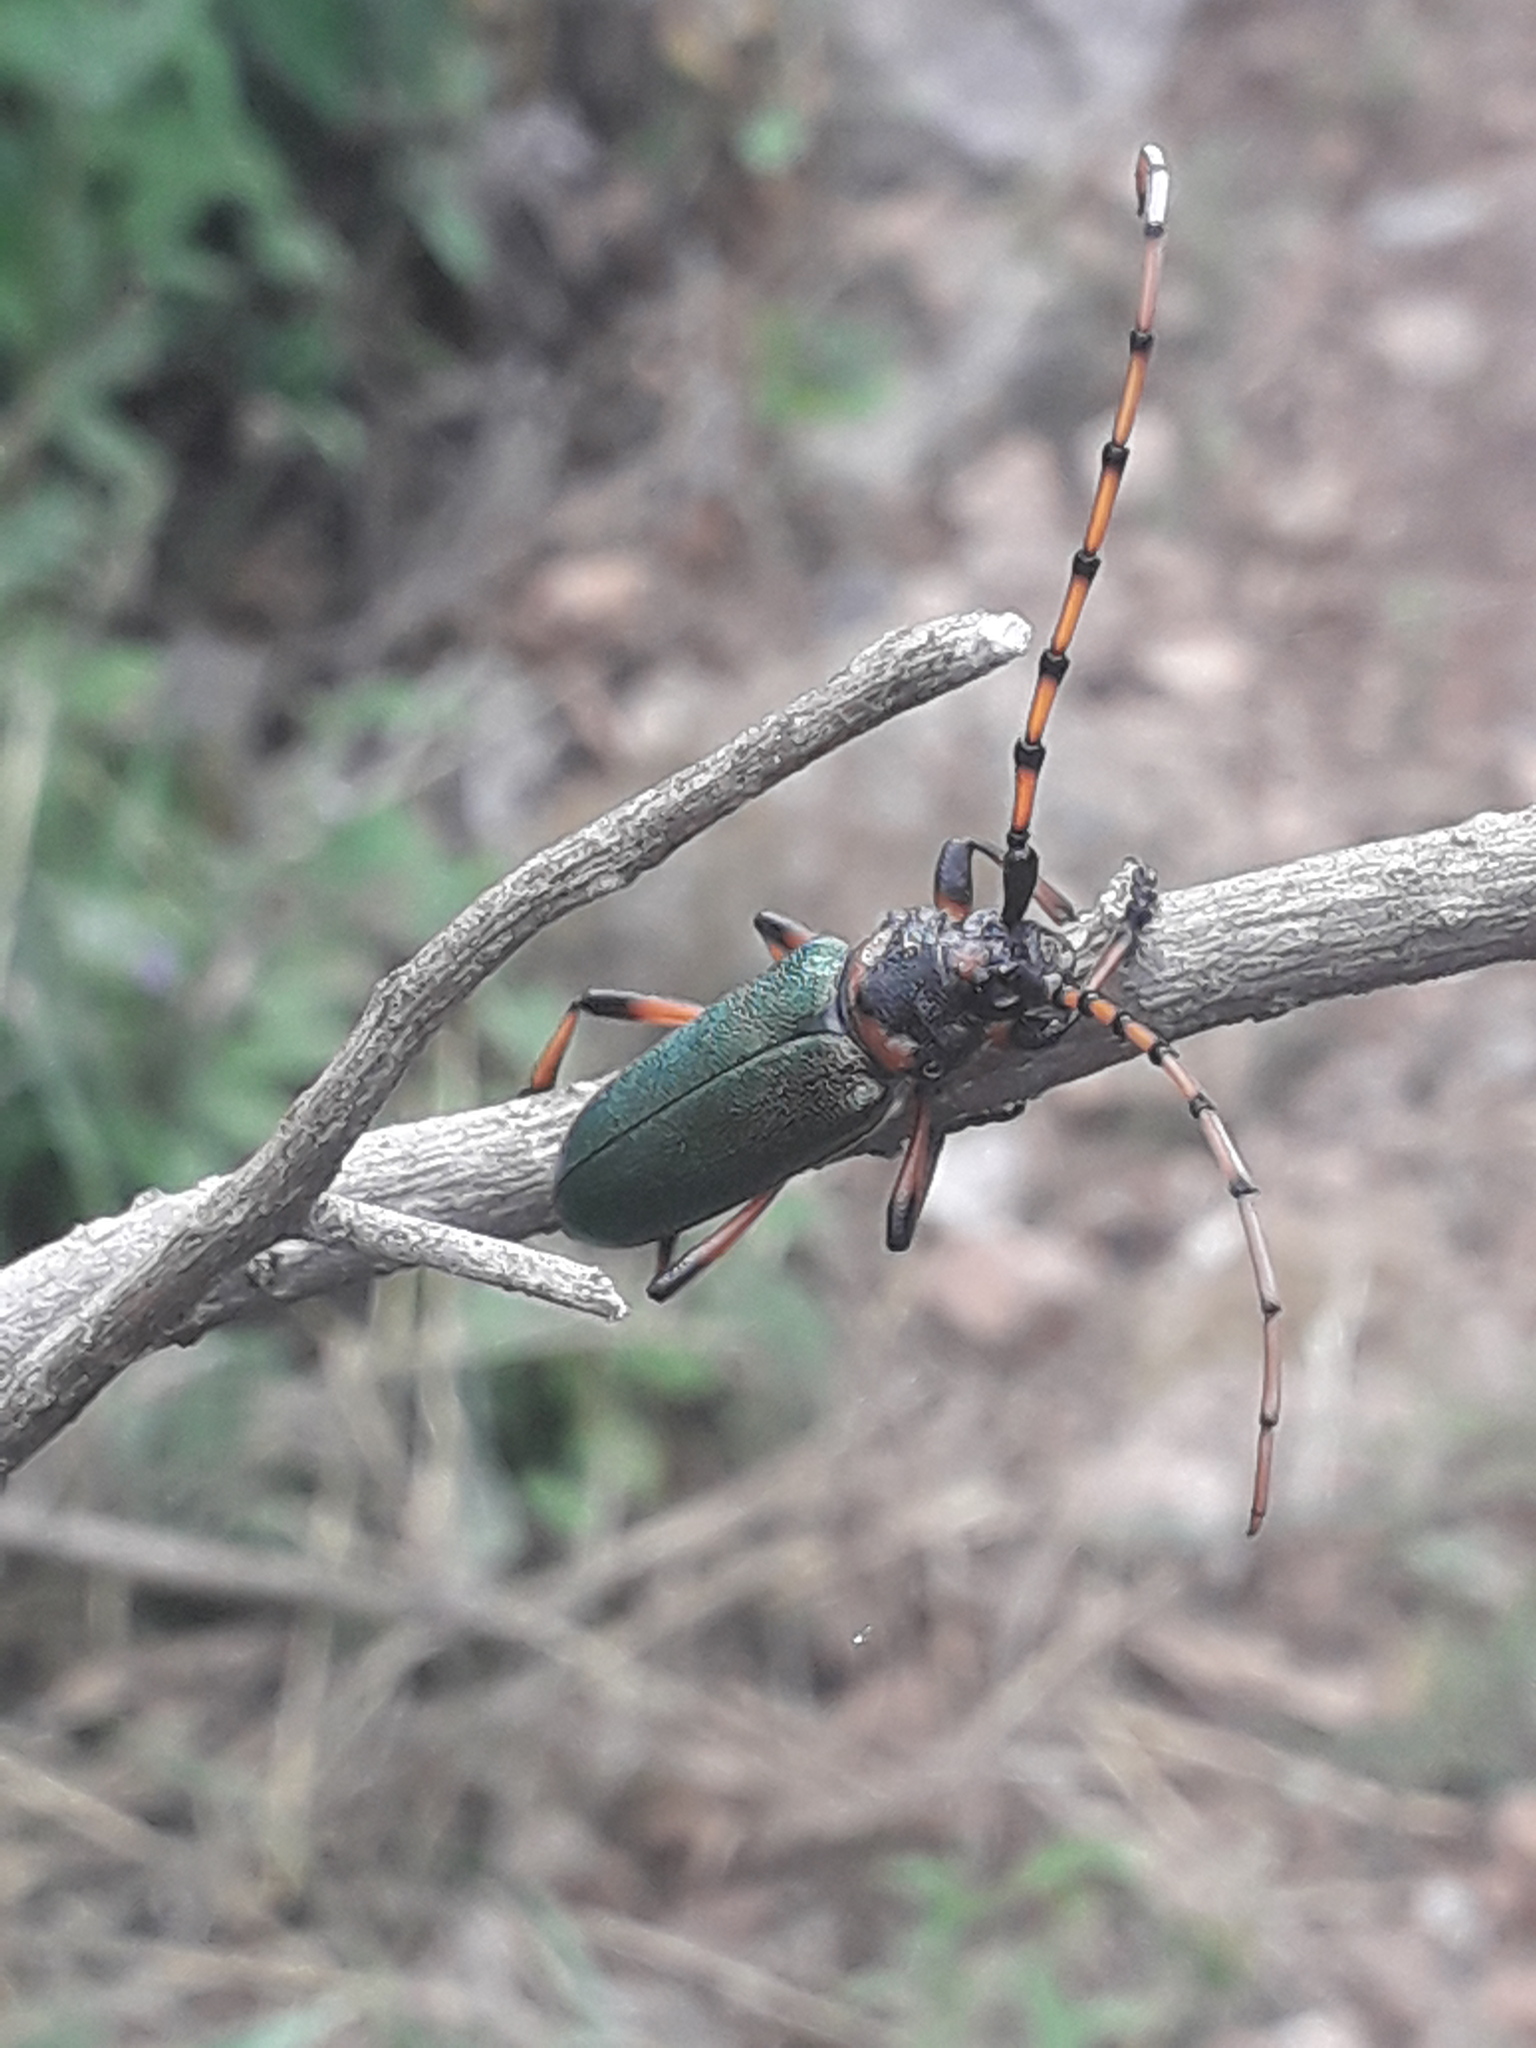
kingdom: Animalia
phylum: Arthropoda
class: Insecta
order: Coleoptera
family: Cerambycidae
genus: Stenaspis
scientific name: Stenaspis verticalis
